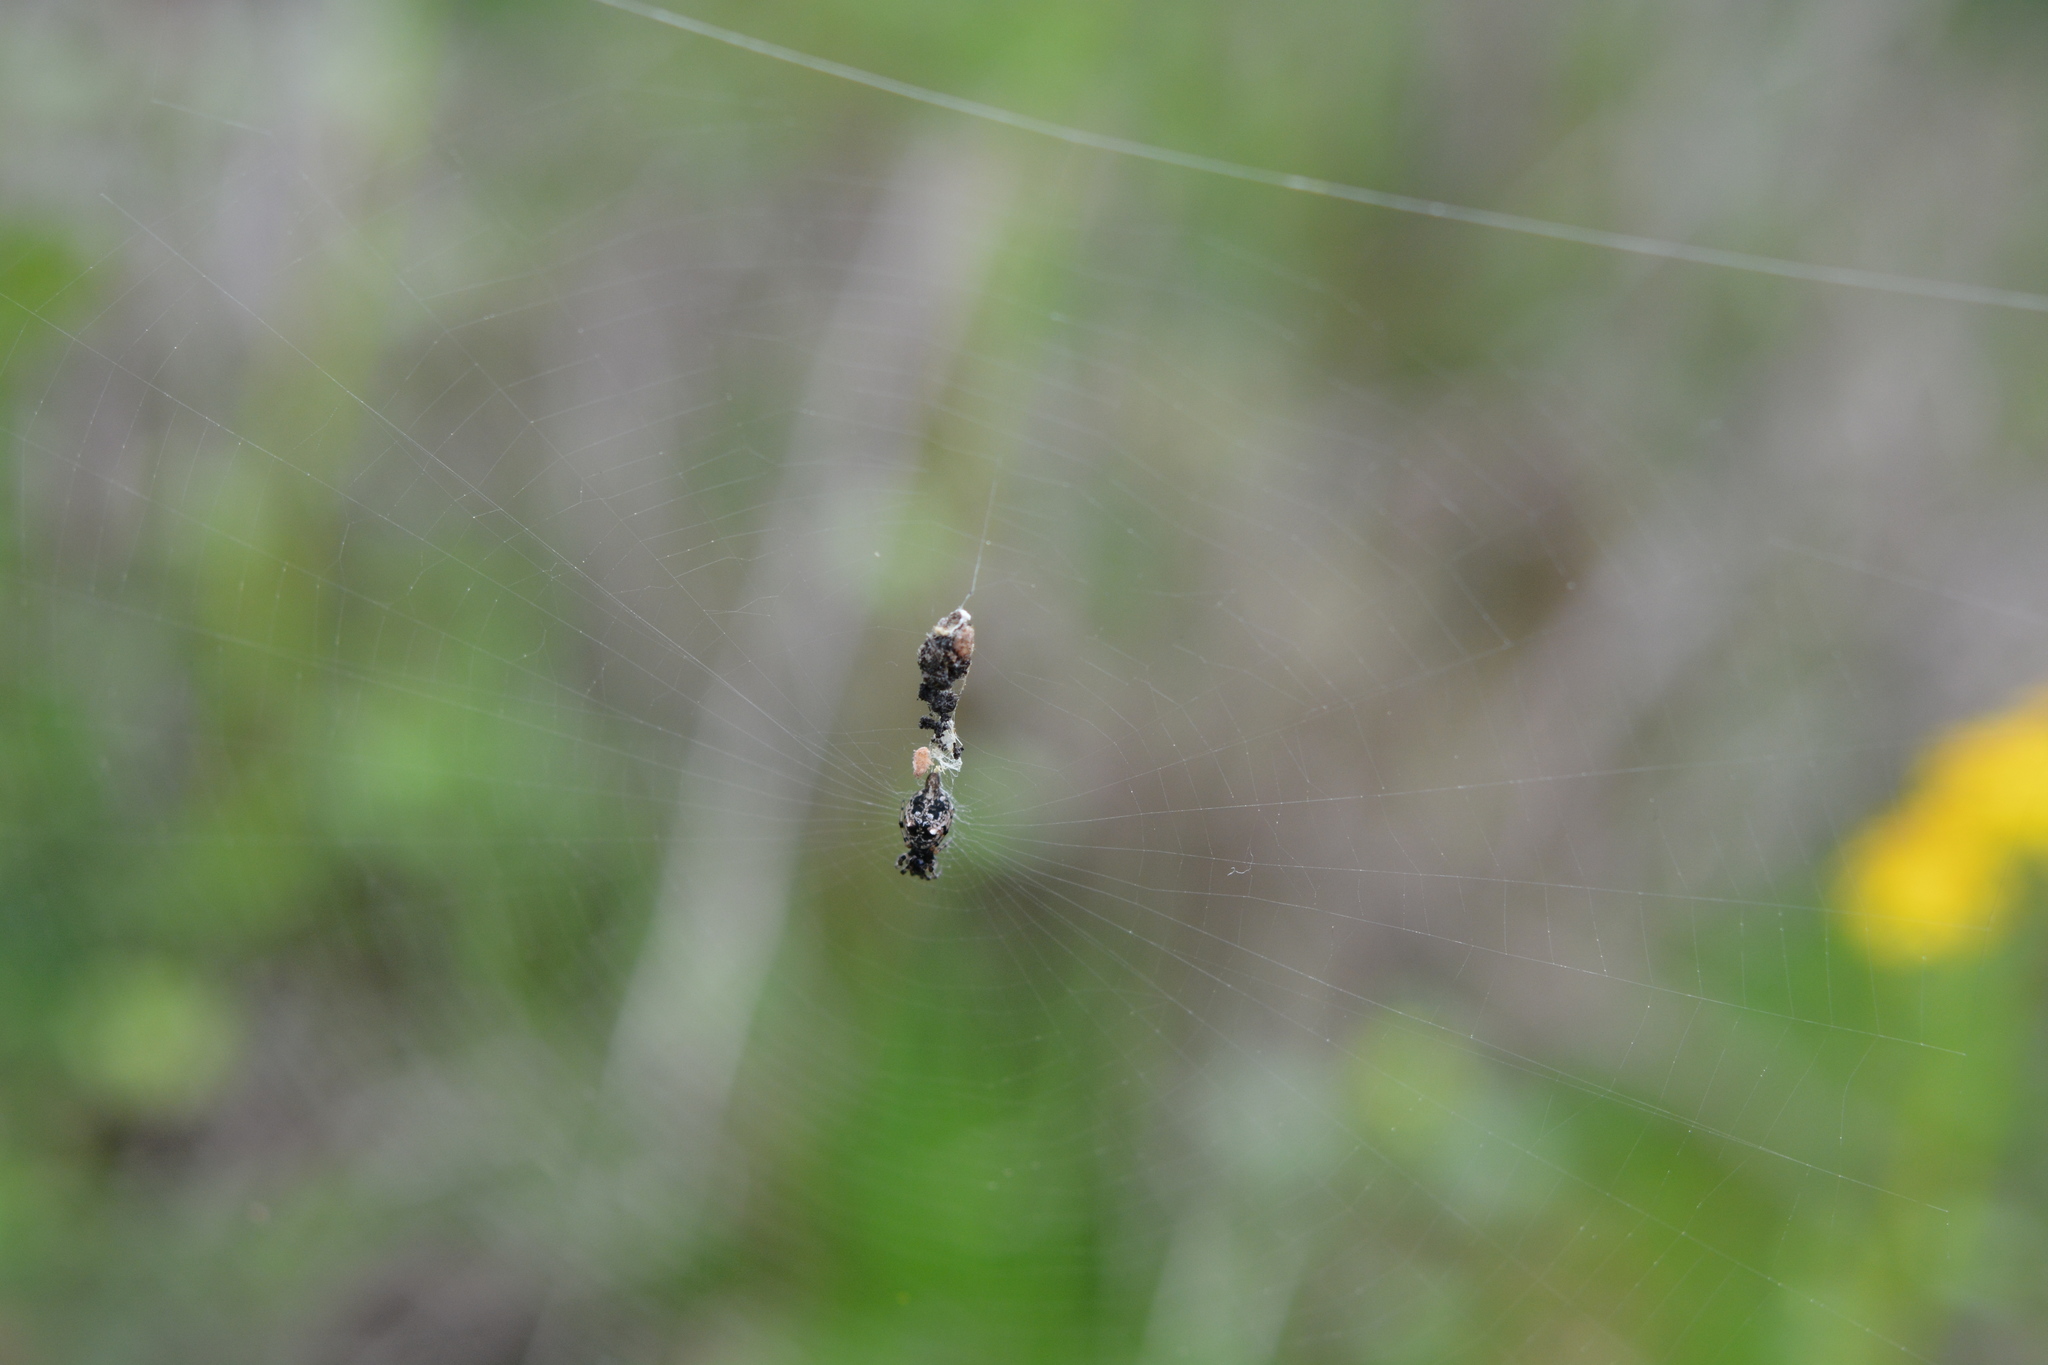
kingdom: Animalia
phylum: Arthropoda
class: Arachnida
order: Araneae
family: Araneidae
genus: Cyclosa
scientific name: Cyclosa turbinata
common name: Orb weavers
